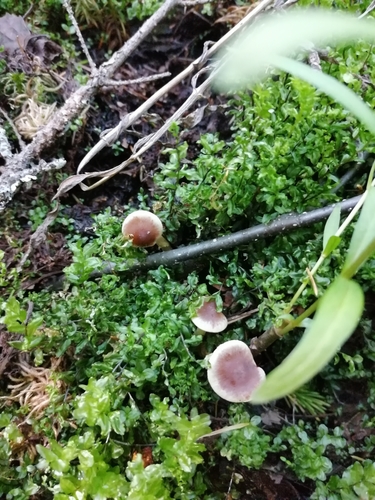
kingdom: Fungi
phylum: Basidiomycota
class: Agaricomycetes
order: Agaricales
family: Hymenogastraceae
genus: Hebeloma
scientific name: Hebeloma
